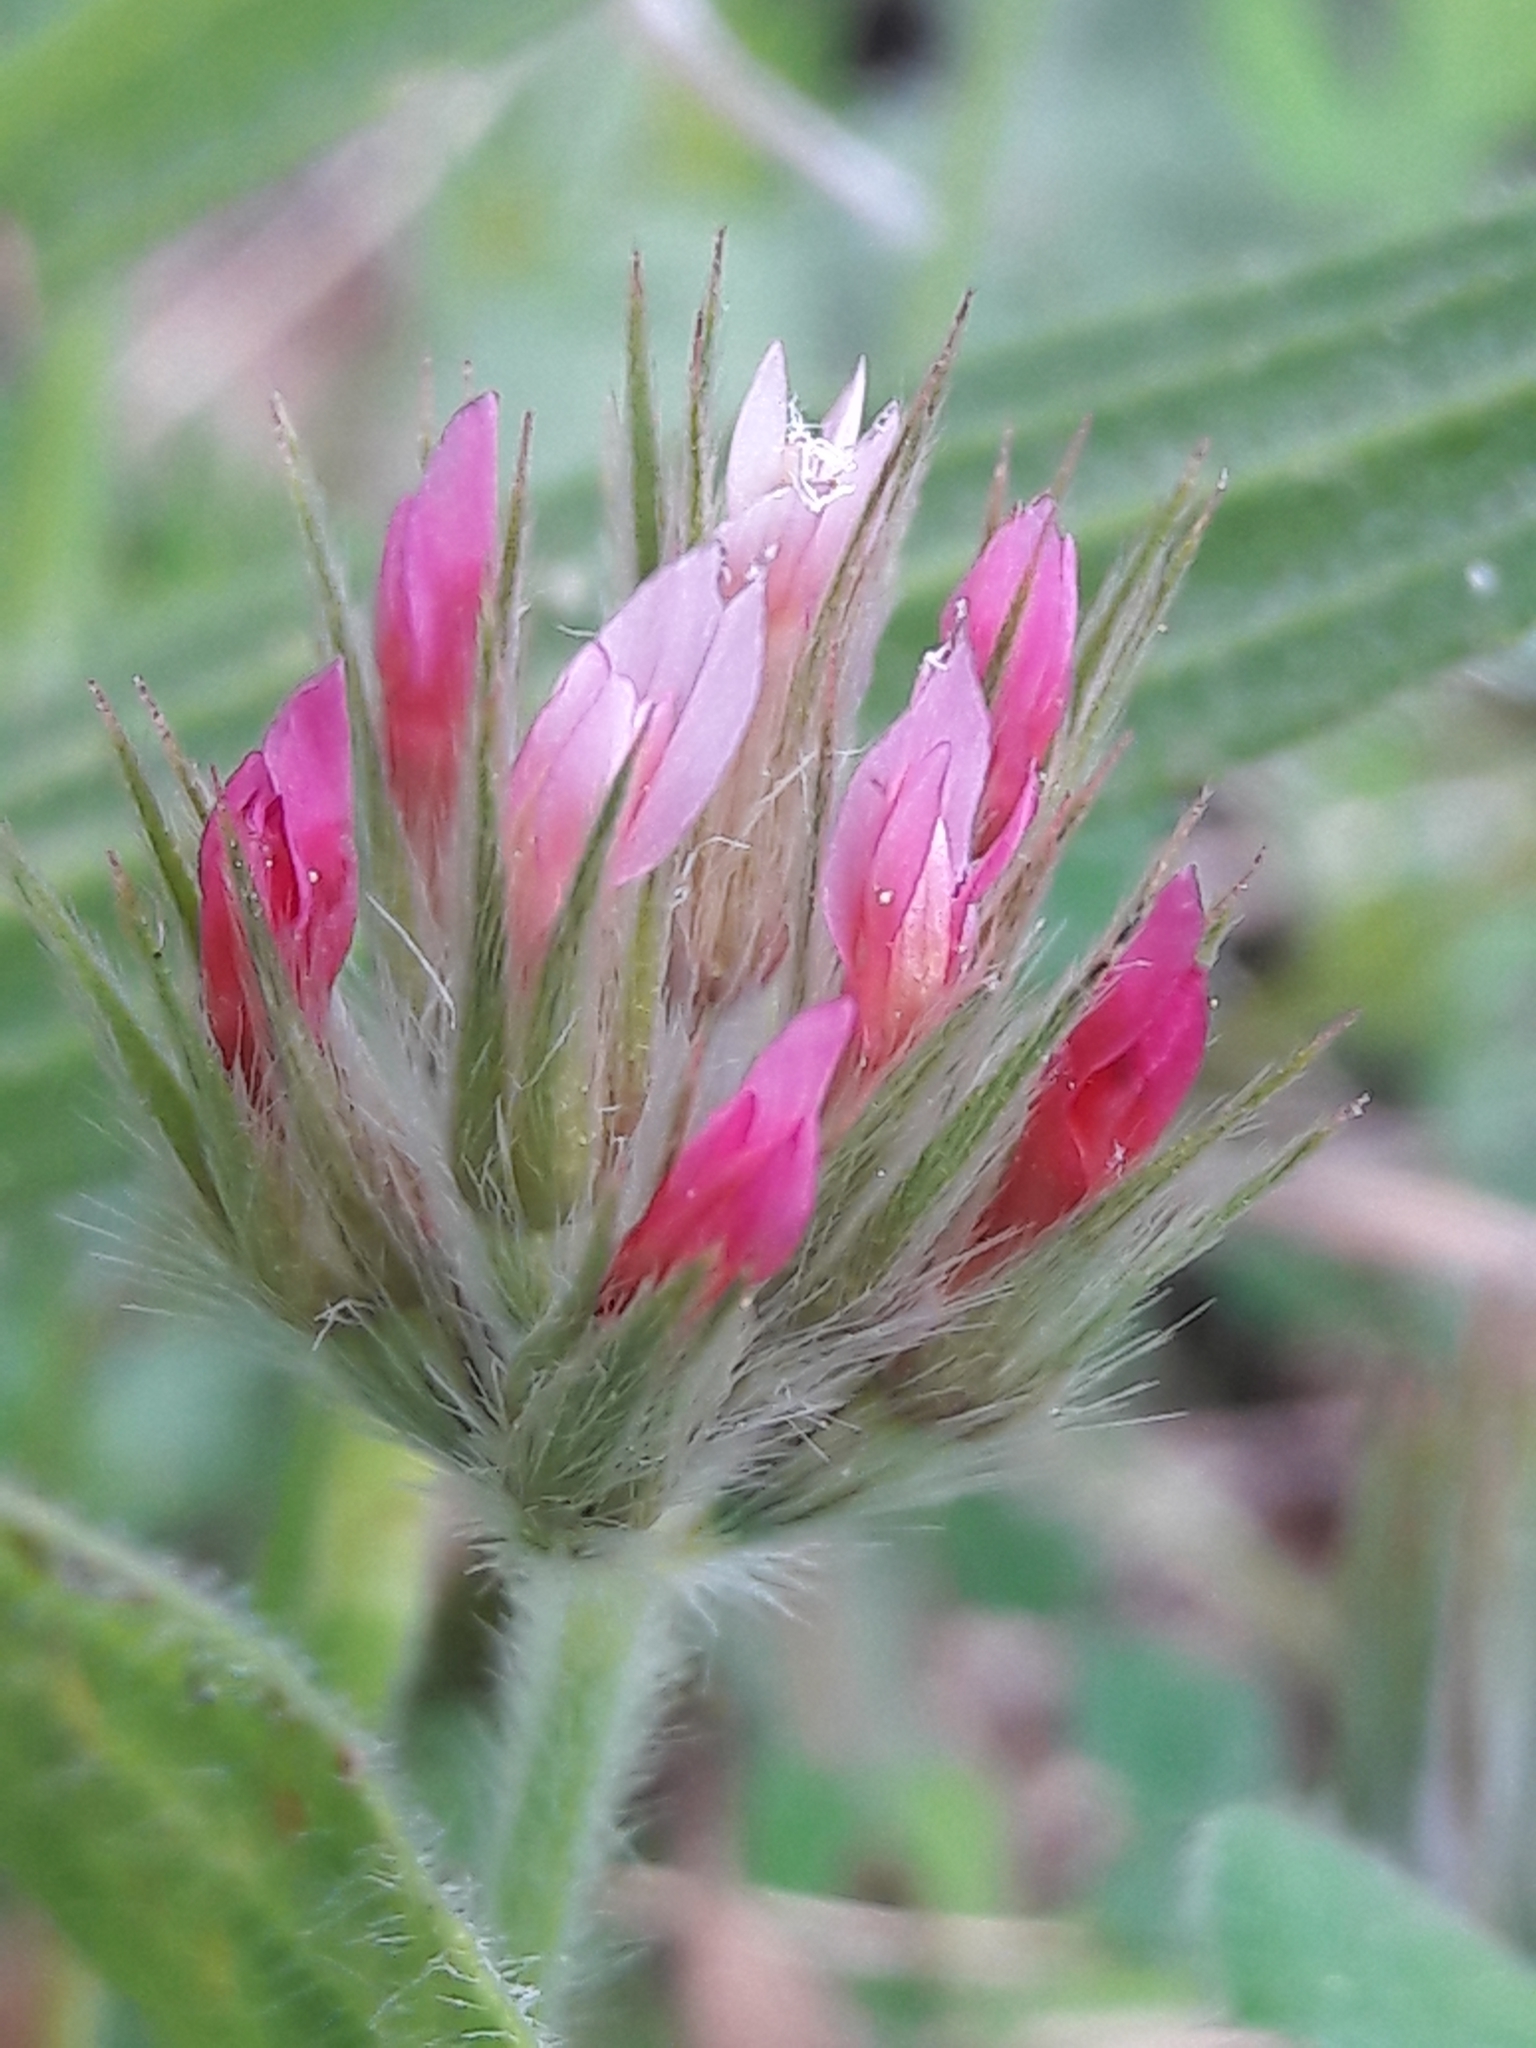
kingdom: Plantae
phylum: Tracheophyta
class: Magnoliopsida
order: Fabales
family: Fabaceae
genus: Trifolium
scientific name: Trifolium stellatum
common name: Starry clover
